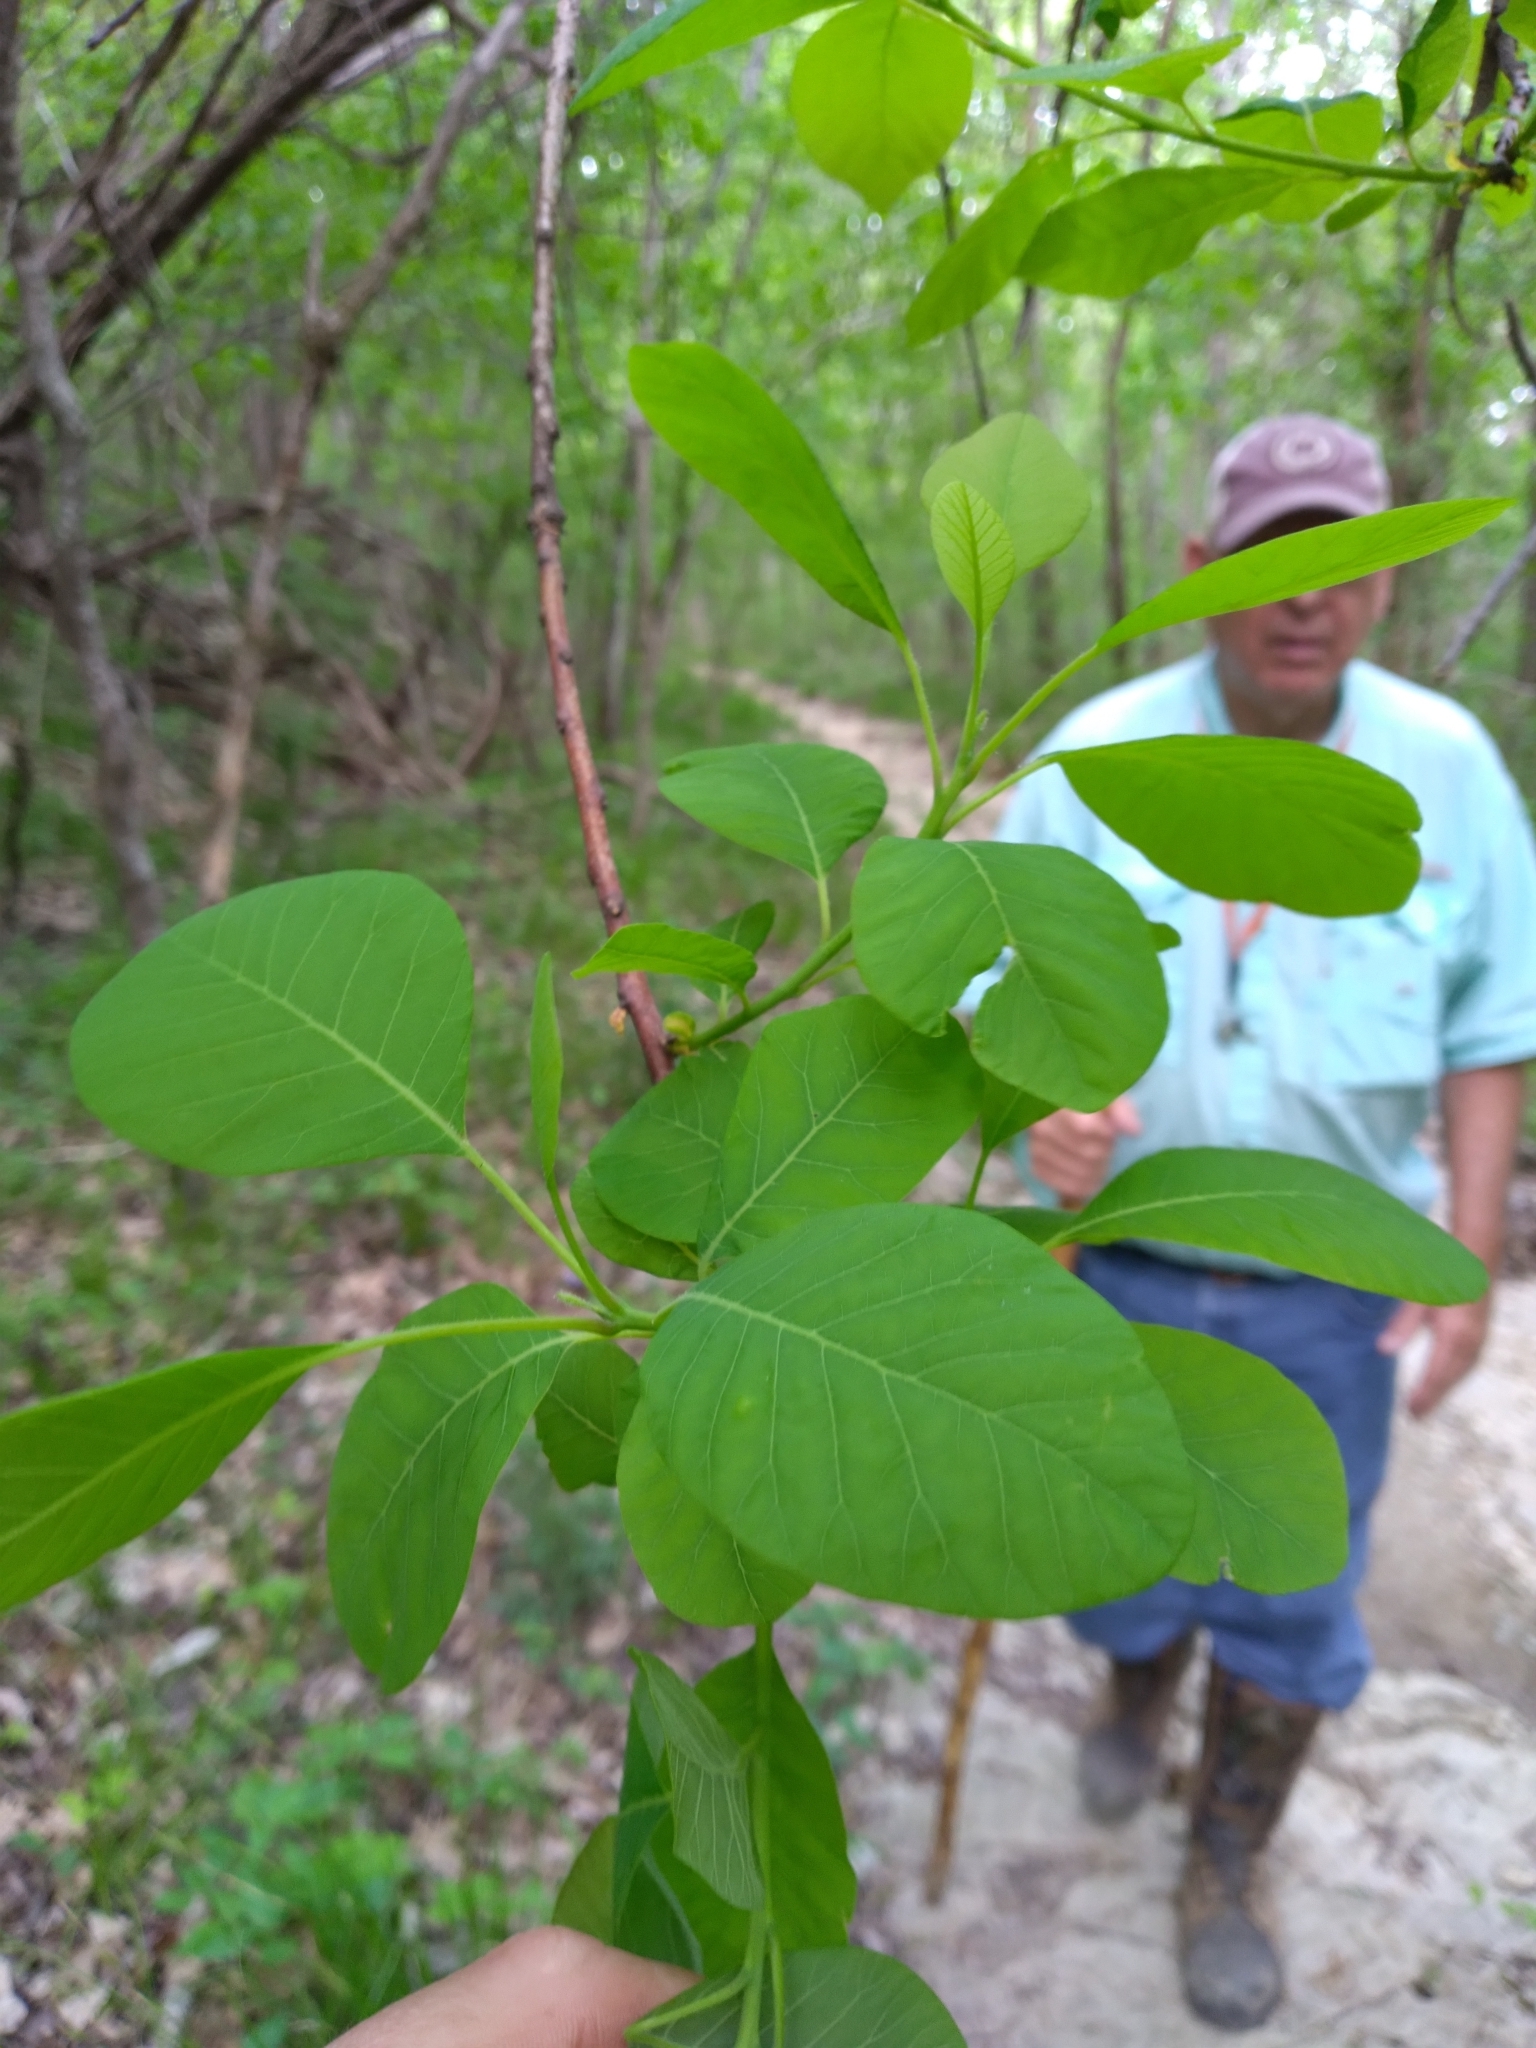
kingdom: Plantae
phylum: Tracheophyta
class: Magnoliopsida
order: Sapindales
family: Anacardiaceae
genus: Cotinus
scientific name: Cotinus obovatus
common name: Chittamwood
